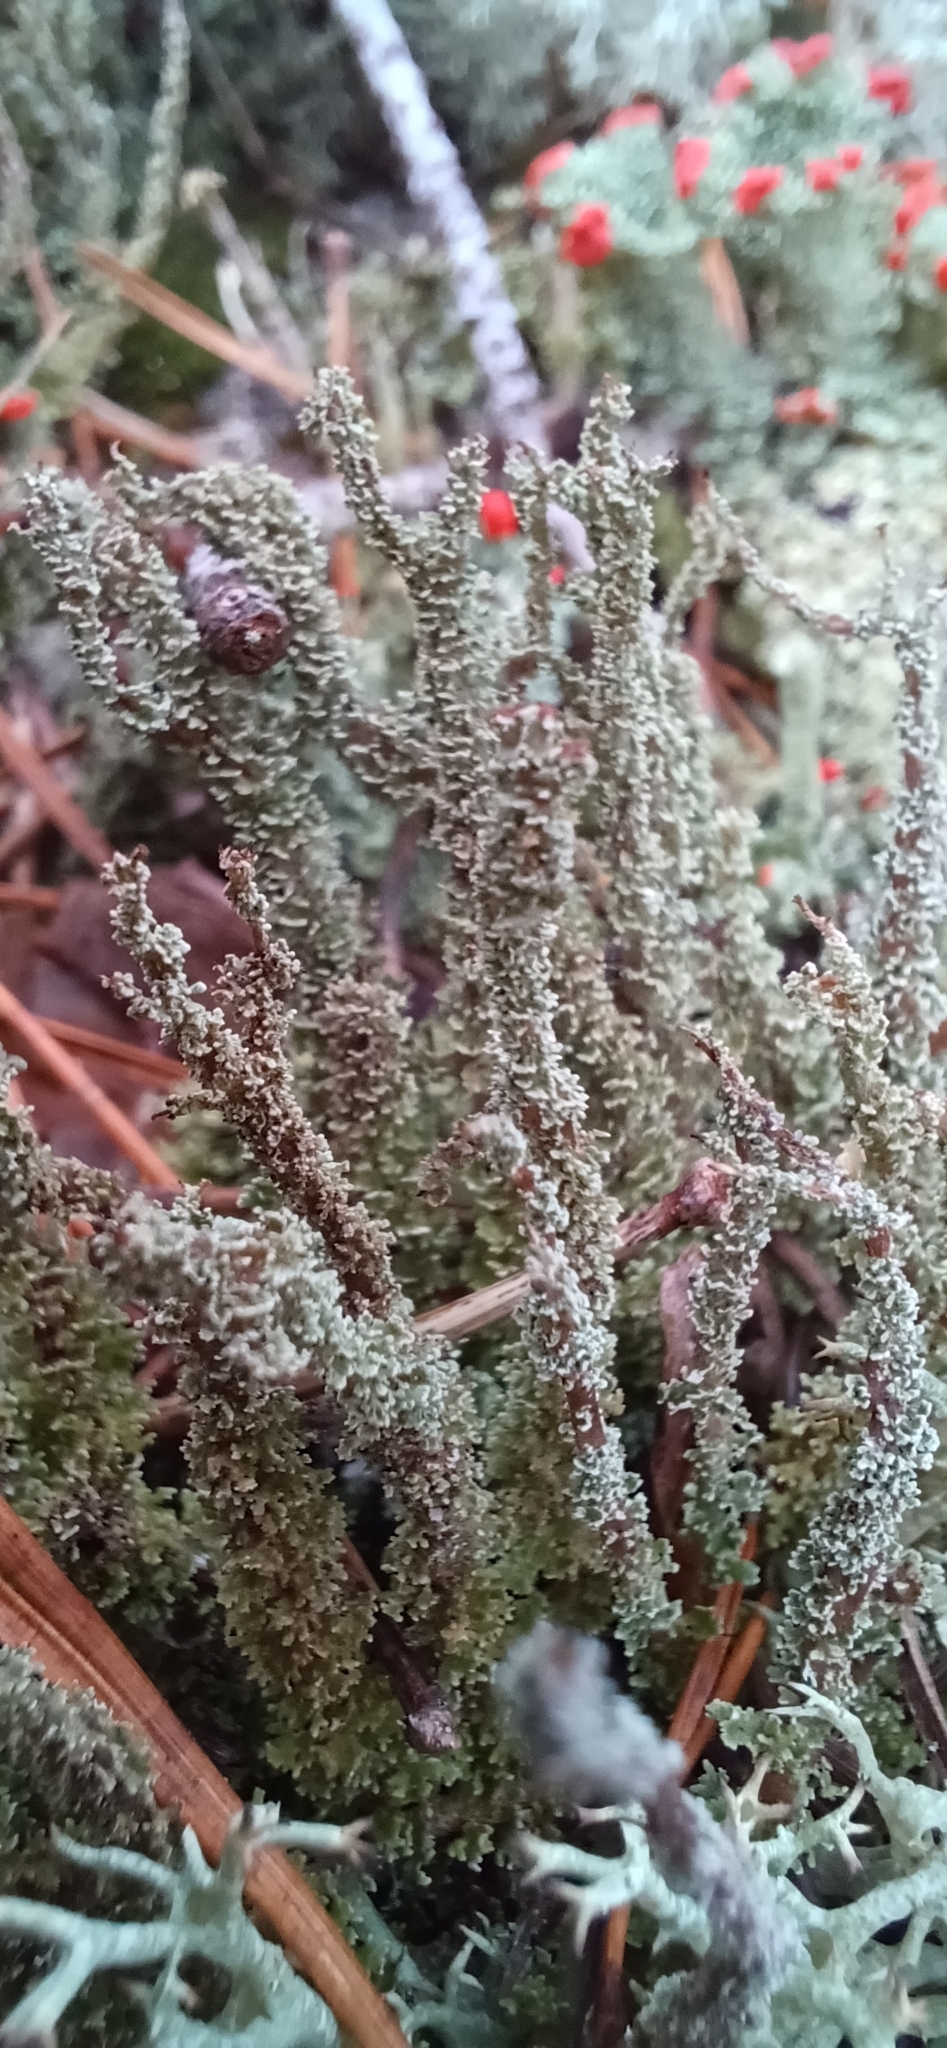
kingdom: Fungi
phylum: Ascomycota
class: Lecanoromycetes
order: Lecanorales
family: Cladoniaceae
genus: Cladonia
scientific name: Cladonia squamosa
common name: Dragon horn
